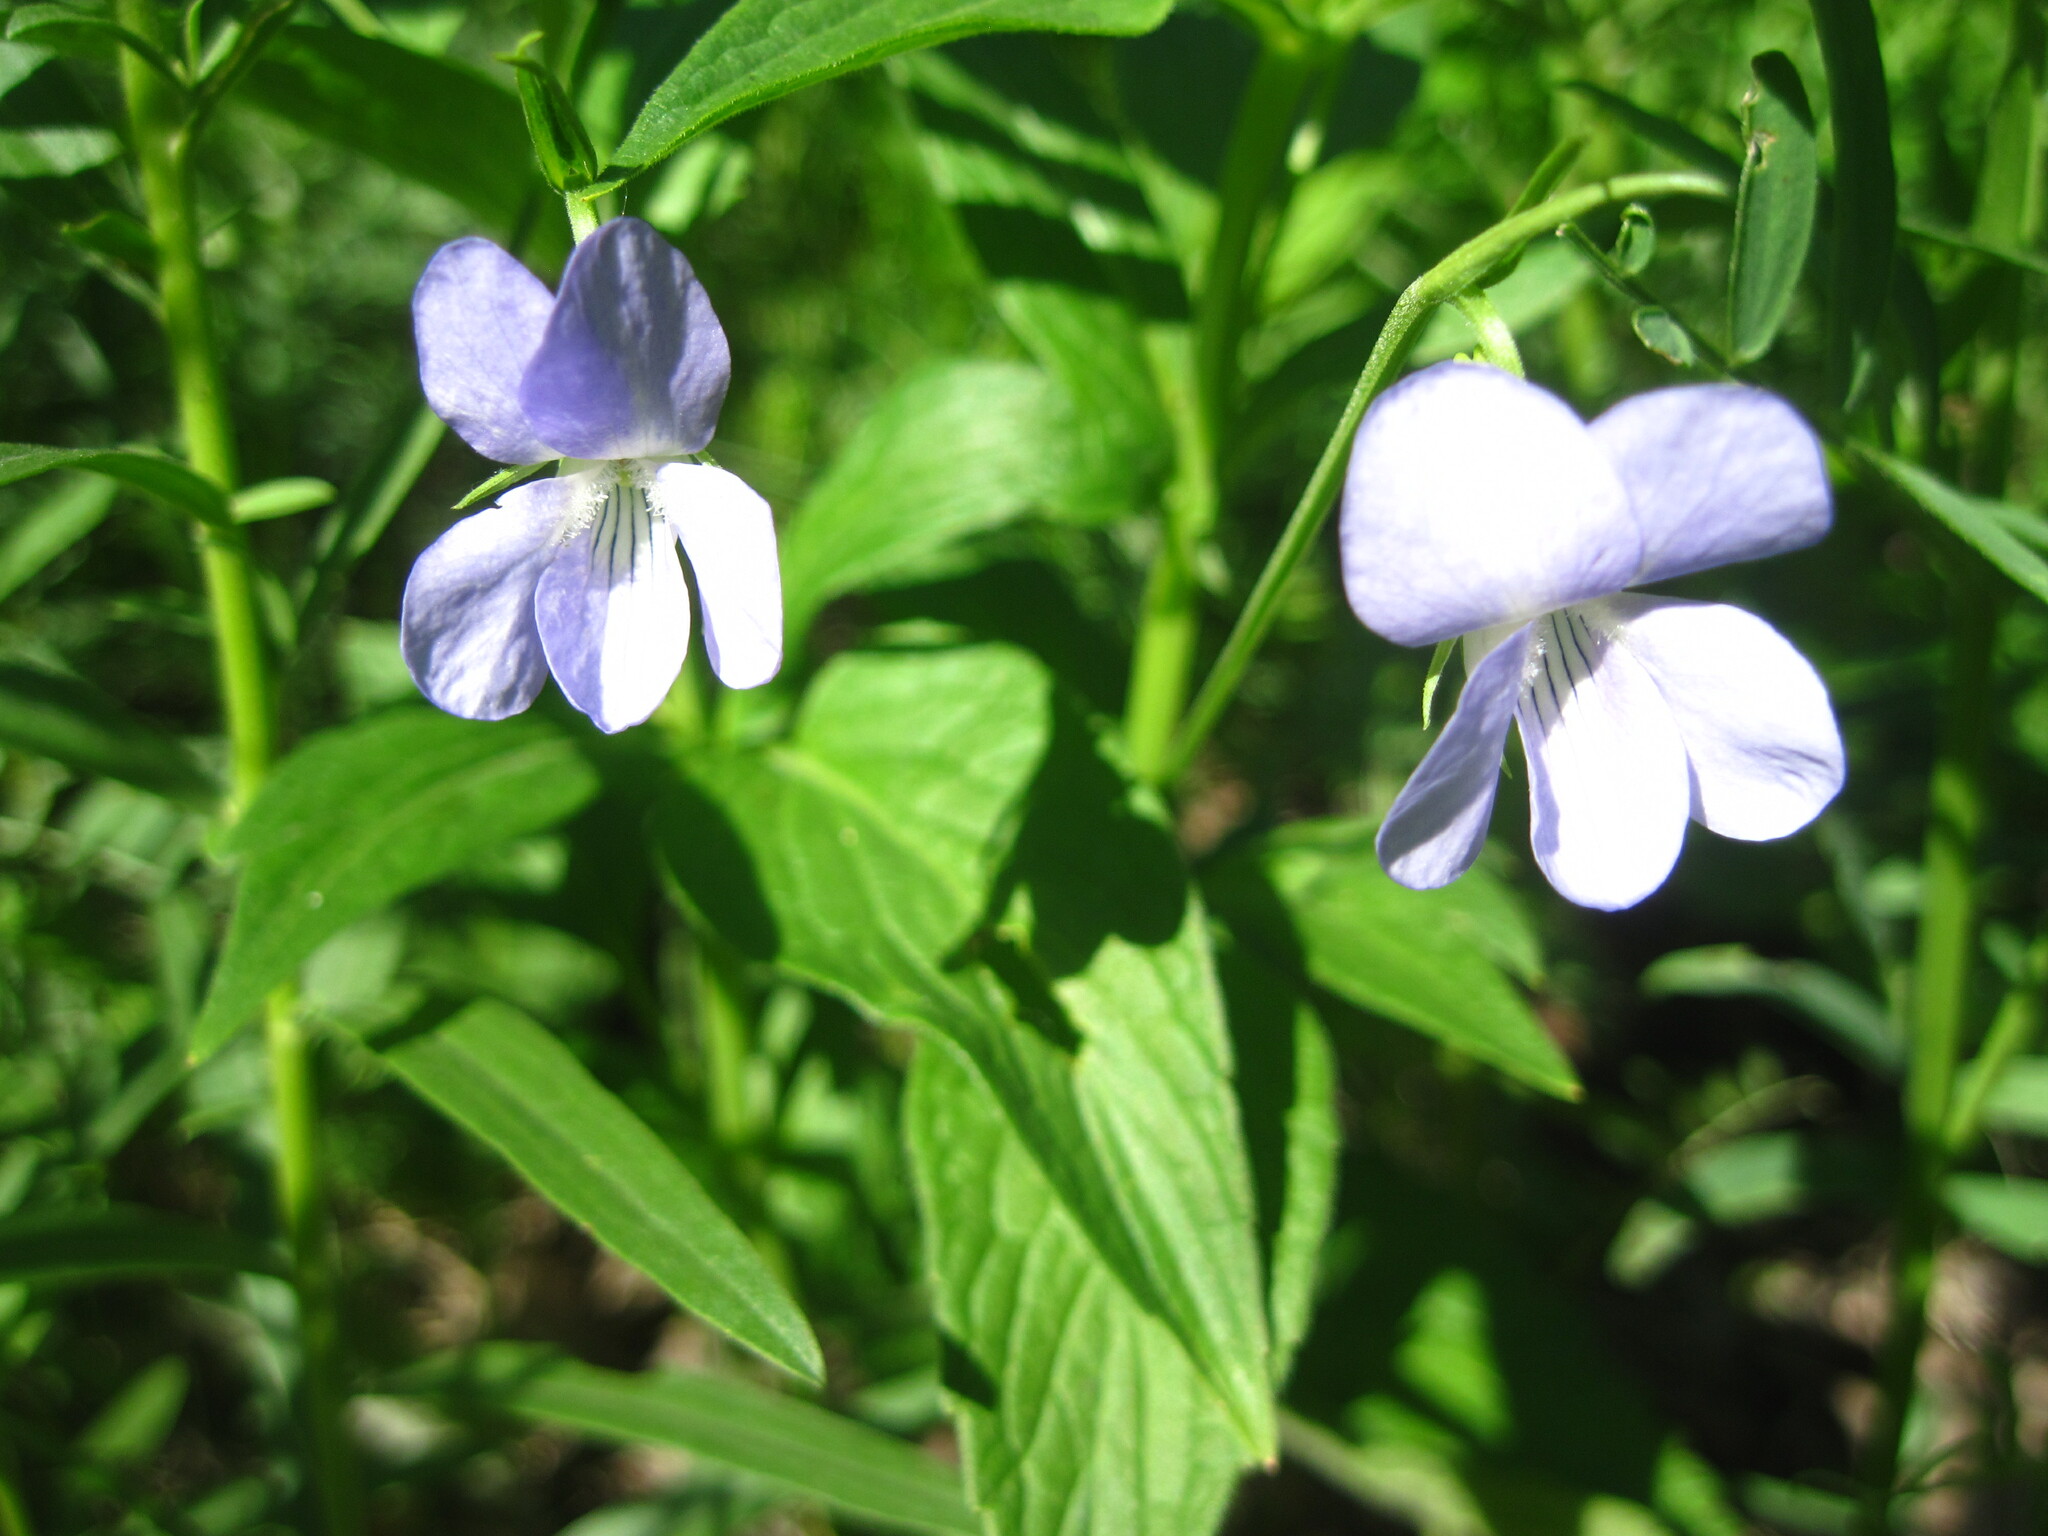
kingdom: Plantae
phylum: Tracheophyta
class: Magnoliopsida
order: Malpighiales
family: Violaceae
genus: Viola
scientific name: Viola elatior
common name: Tall violet
